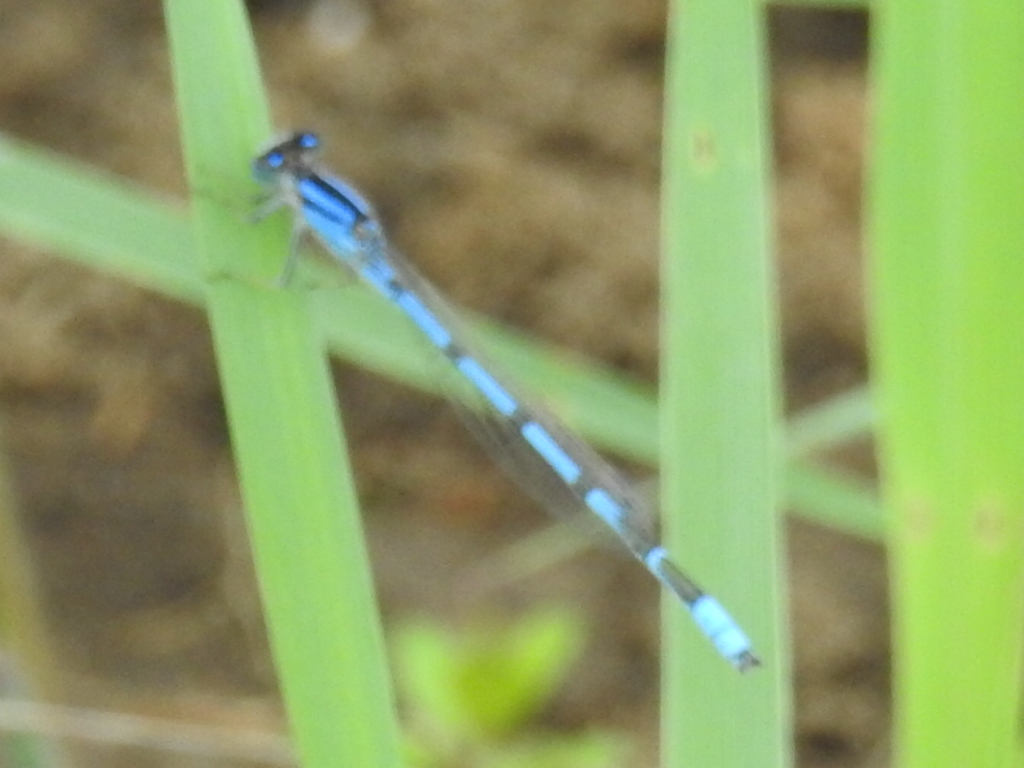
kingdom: Animalia
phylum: Arthropoda
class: Insecta
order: Odonata
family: Coenagrionidae
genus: Enallagma
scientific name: Enallagma civile
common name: Damselfly
